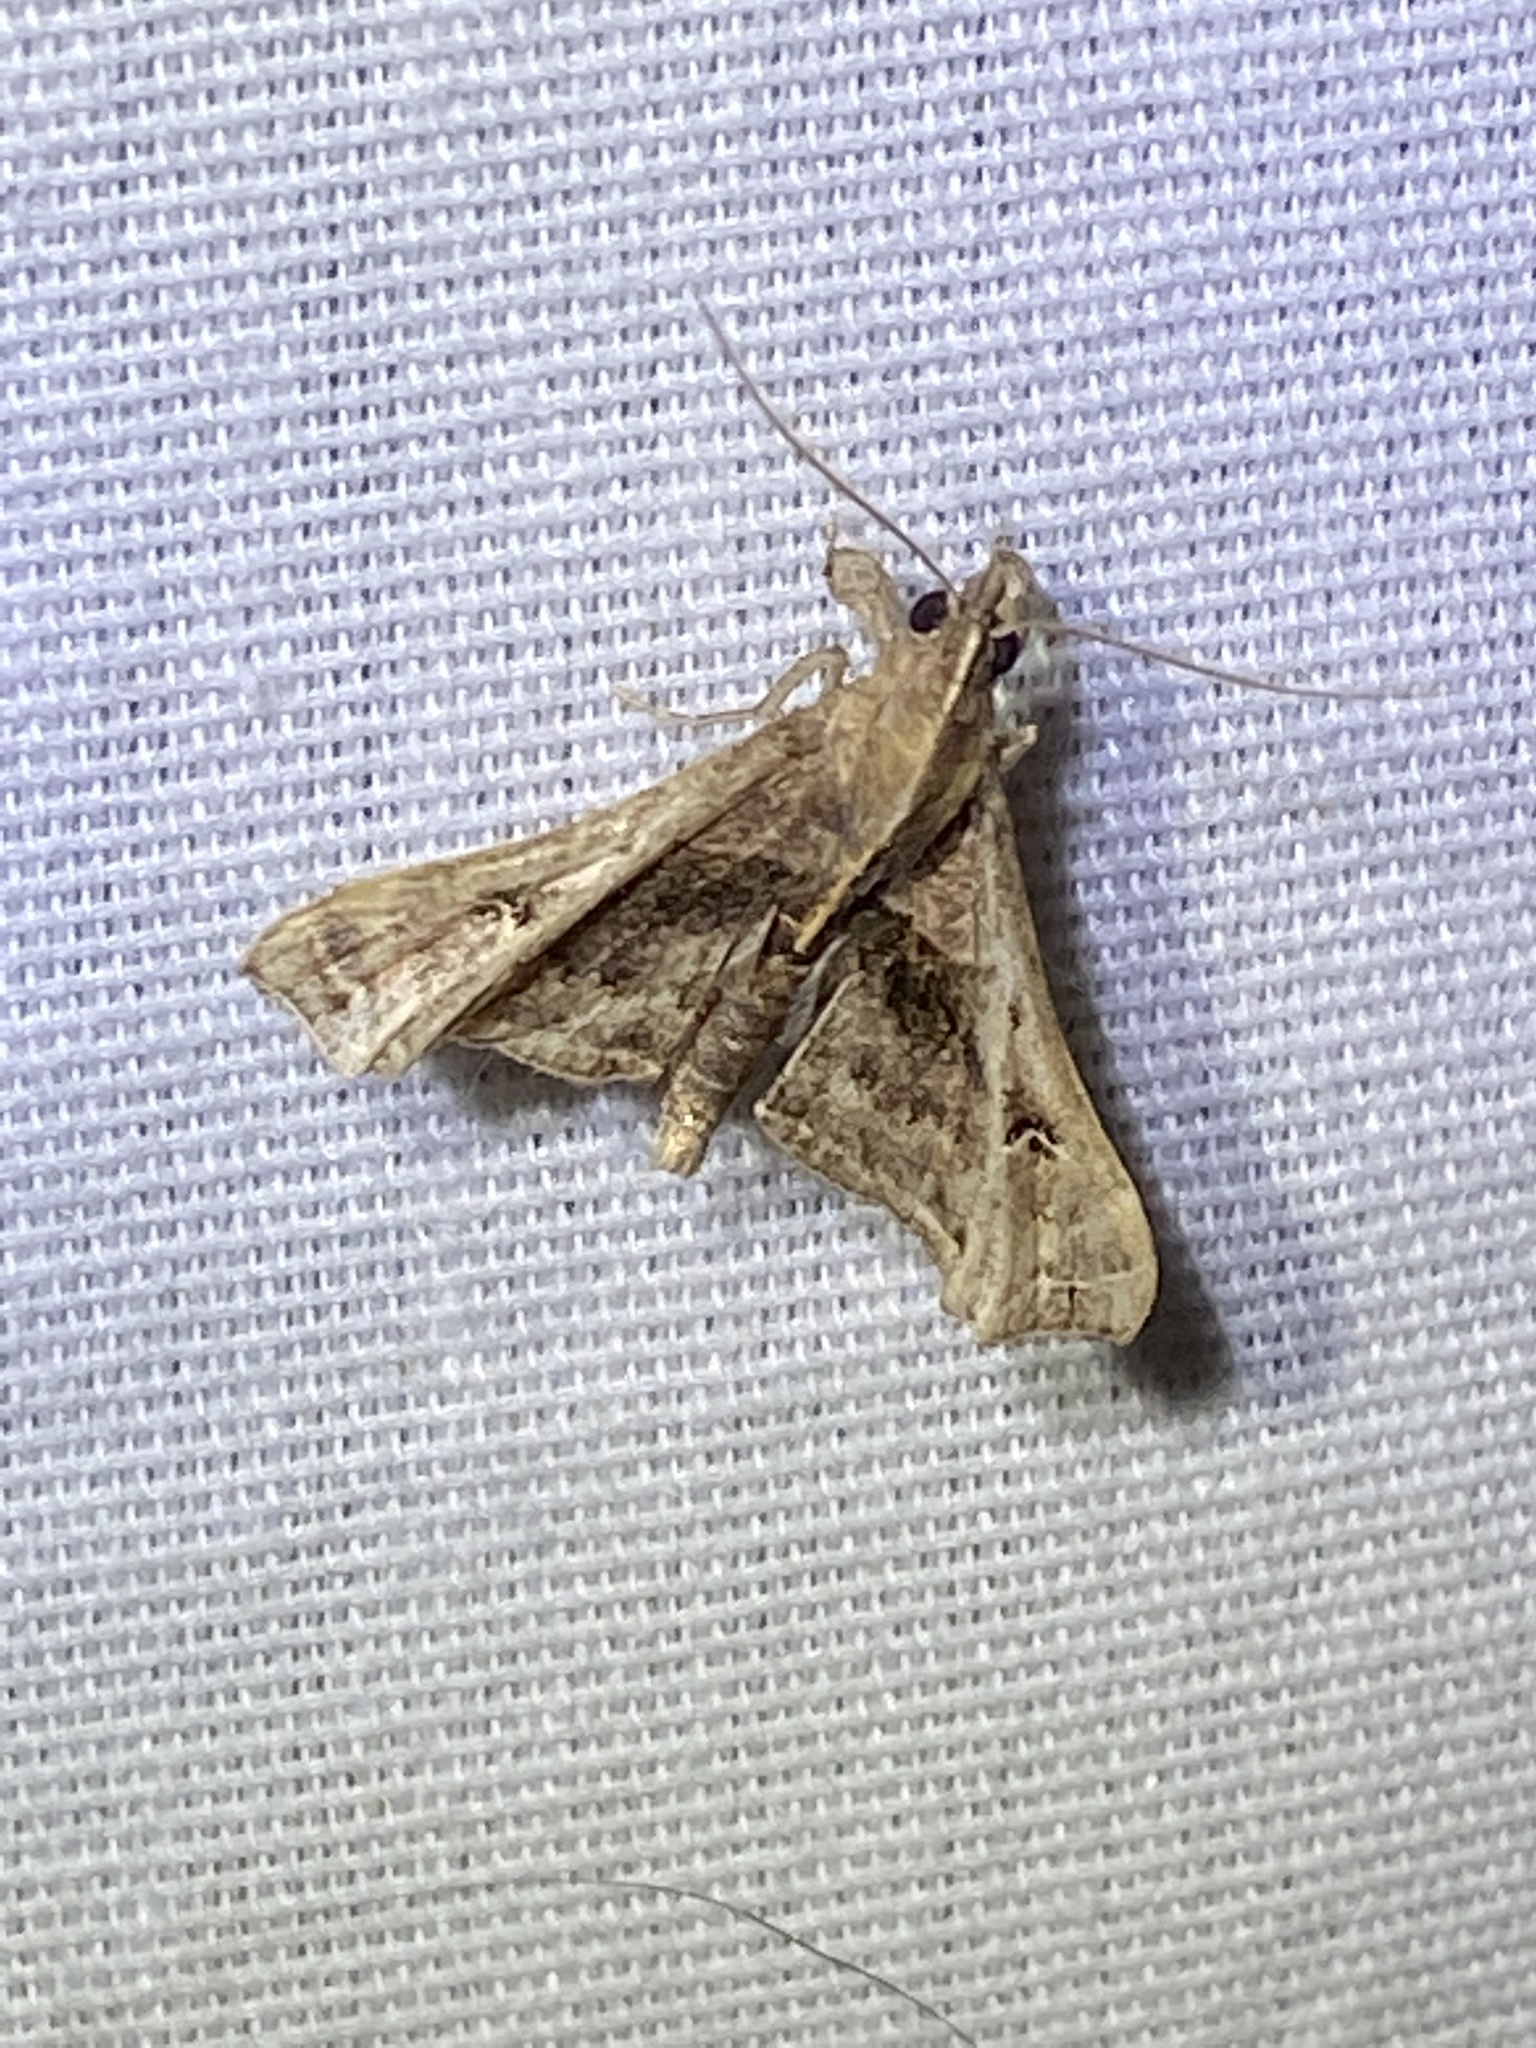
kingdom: Animalia
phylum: Arthropoda
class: Insecta
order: Lepidoptera
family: Erebidae
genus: Palthis
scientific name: Palthis asopialis
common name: Faint-spotted palthis moth
